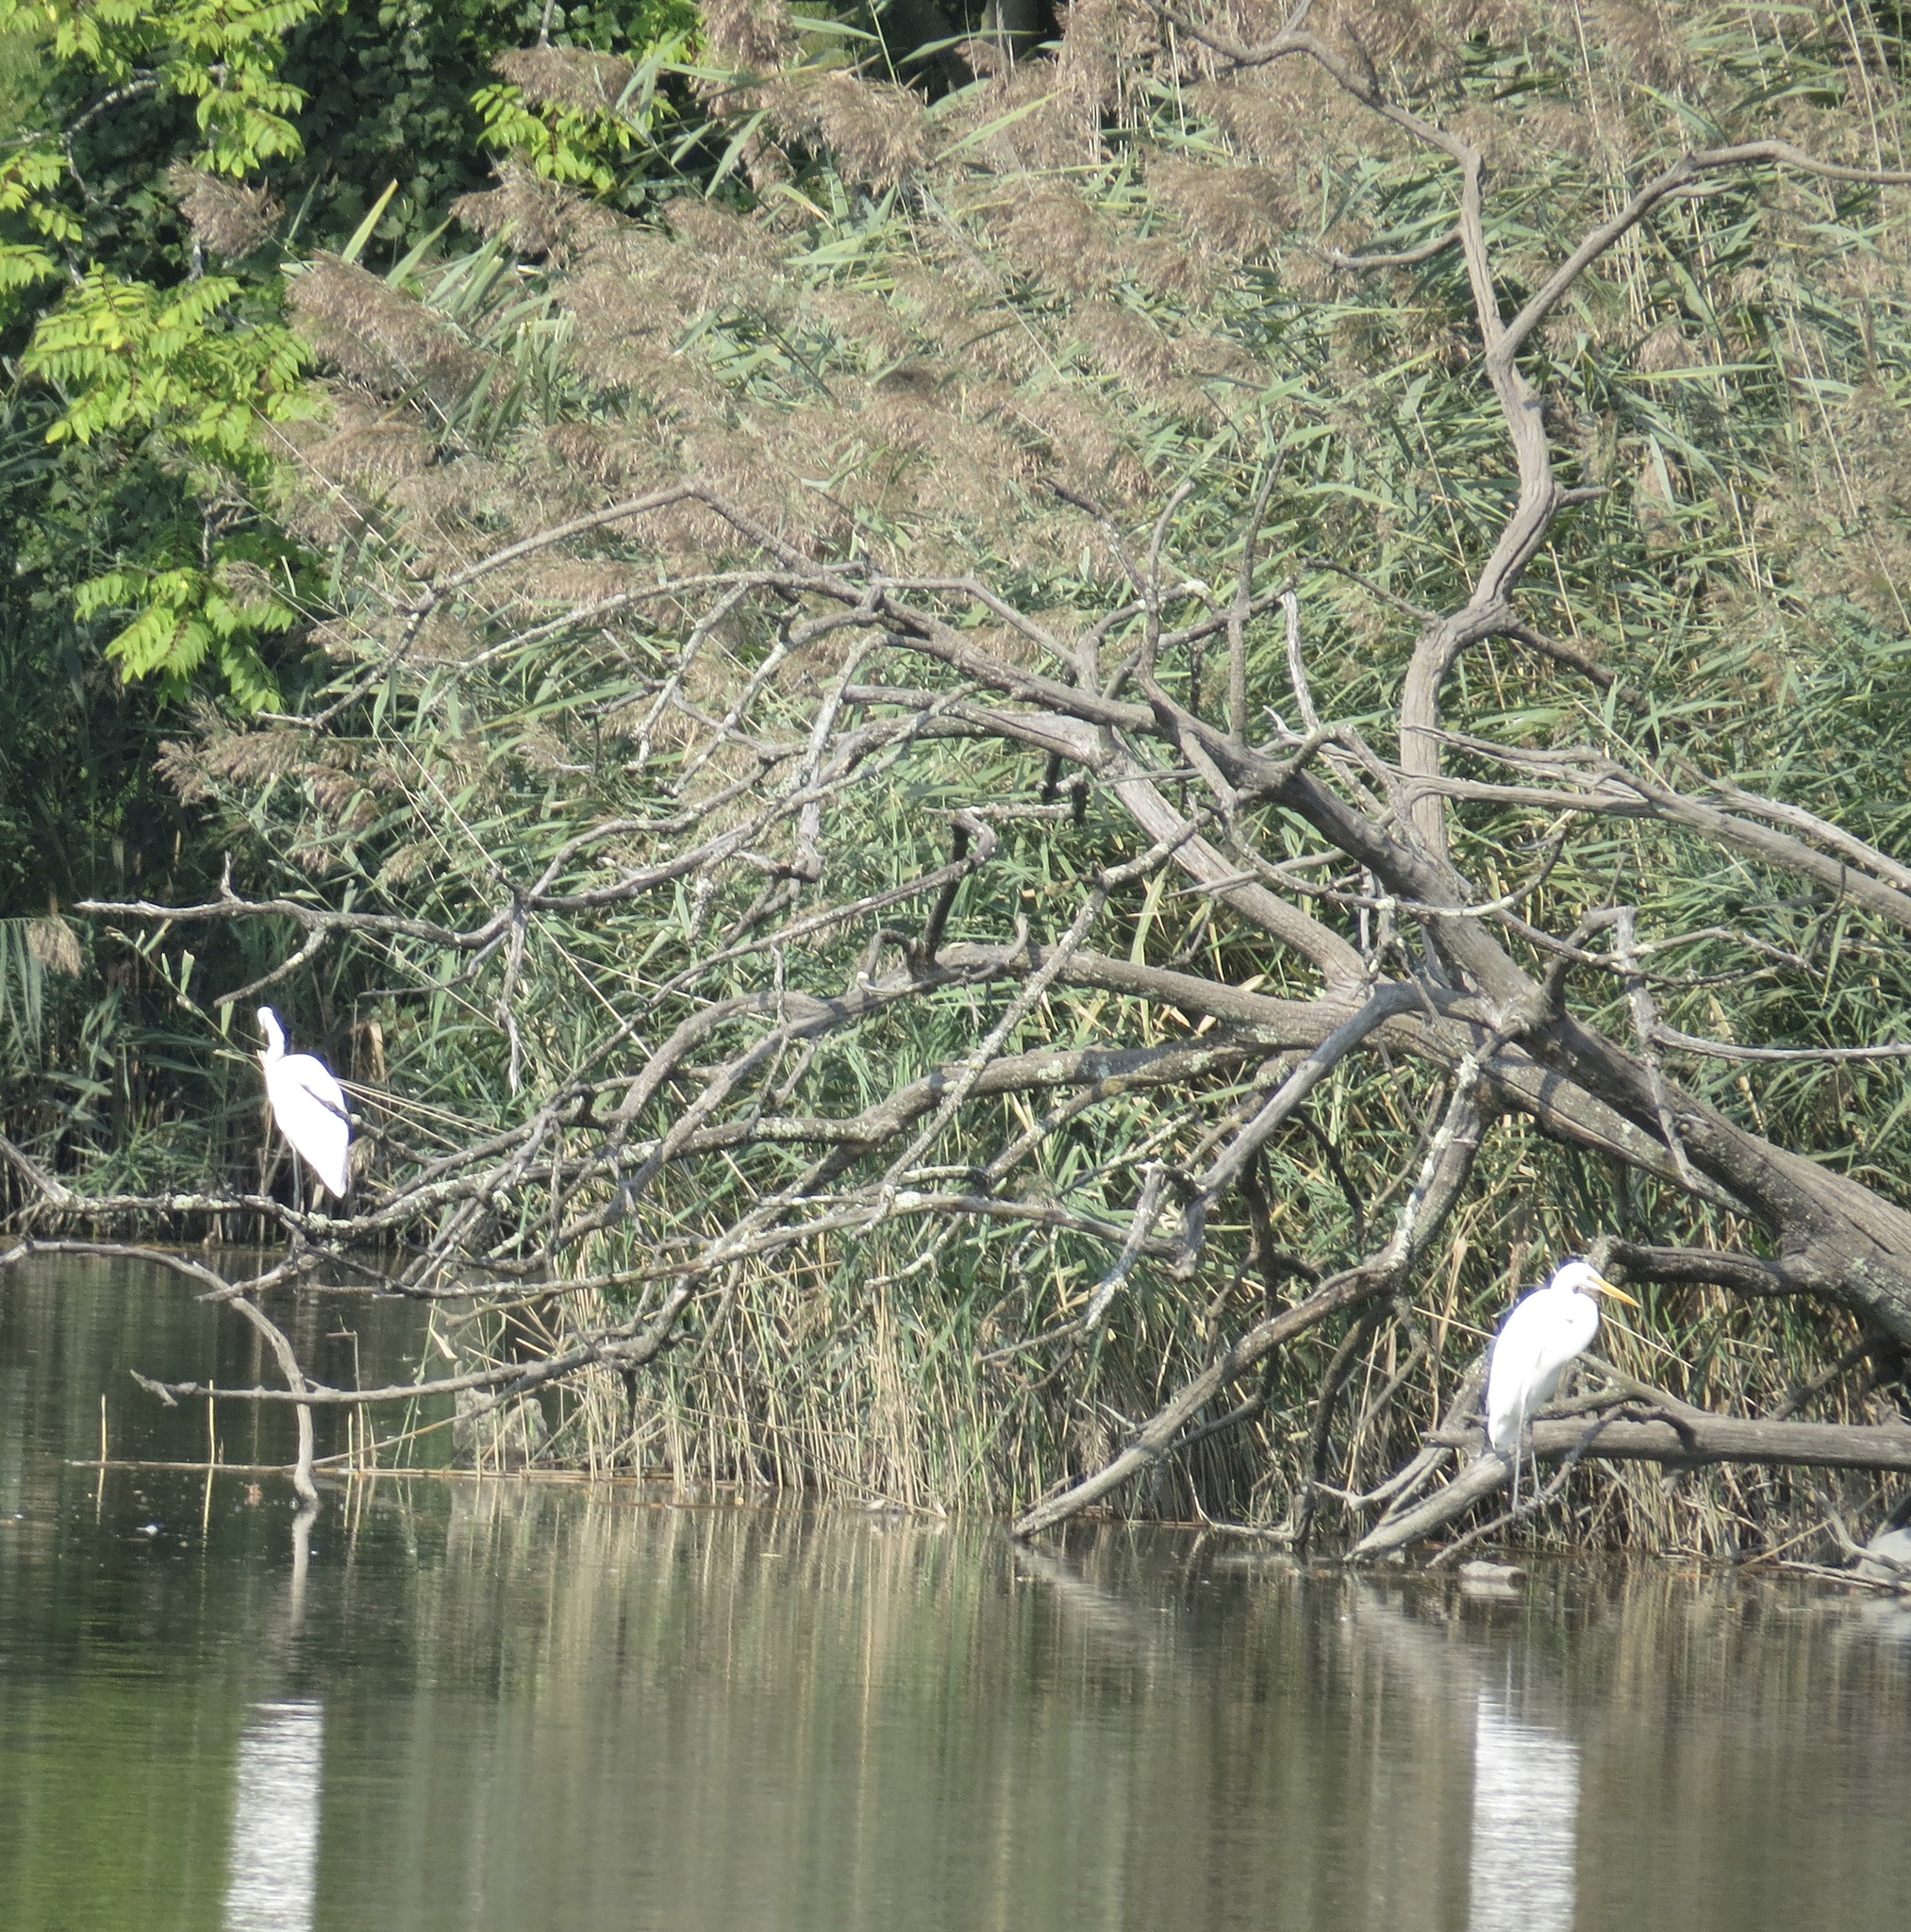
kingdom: Animalia
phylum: Chordata
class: Aves
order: Pelecaniformes
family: Ardeidae
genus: Ardea
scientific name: Ardea alba
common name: Great egret
